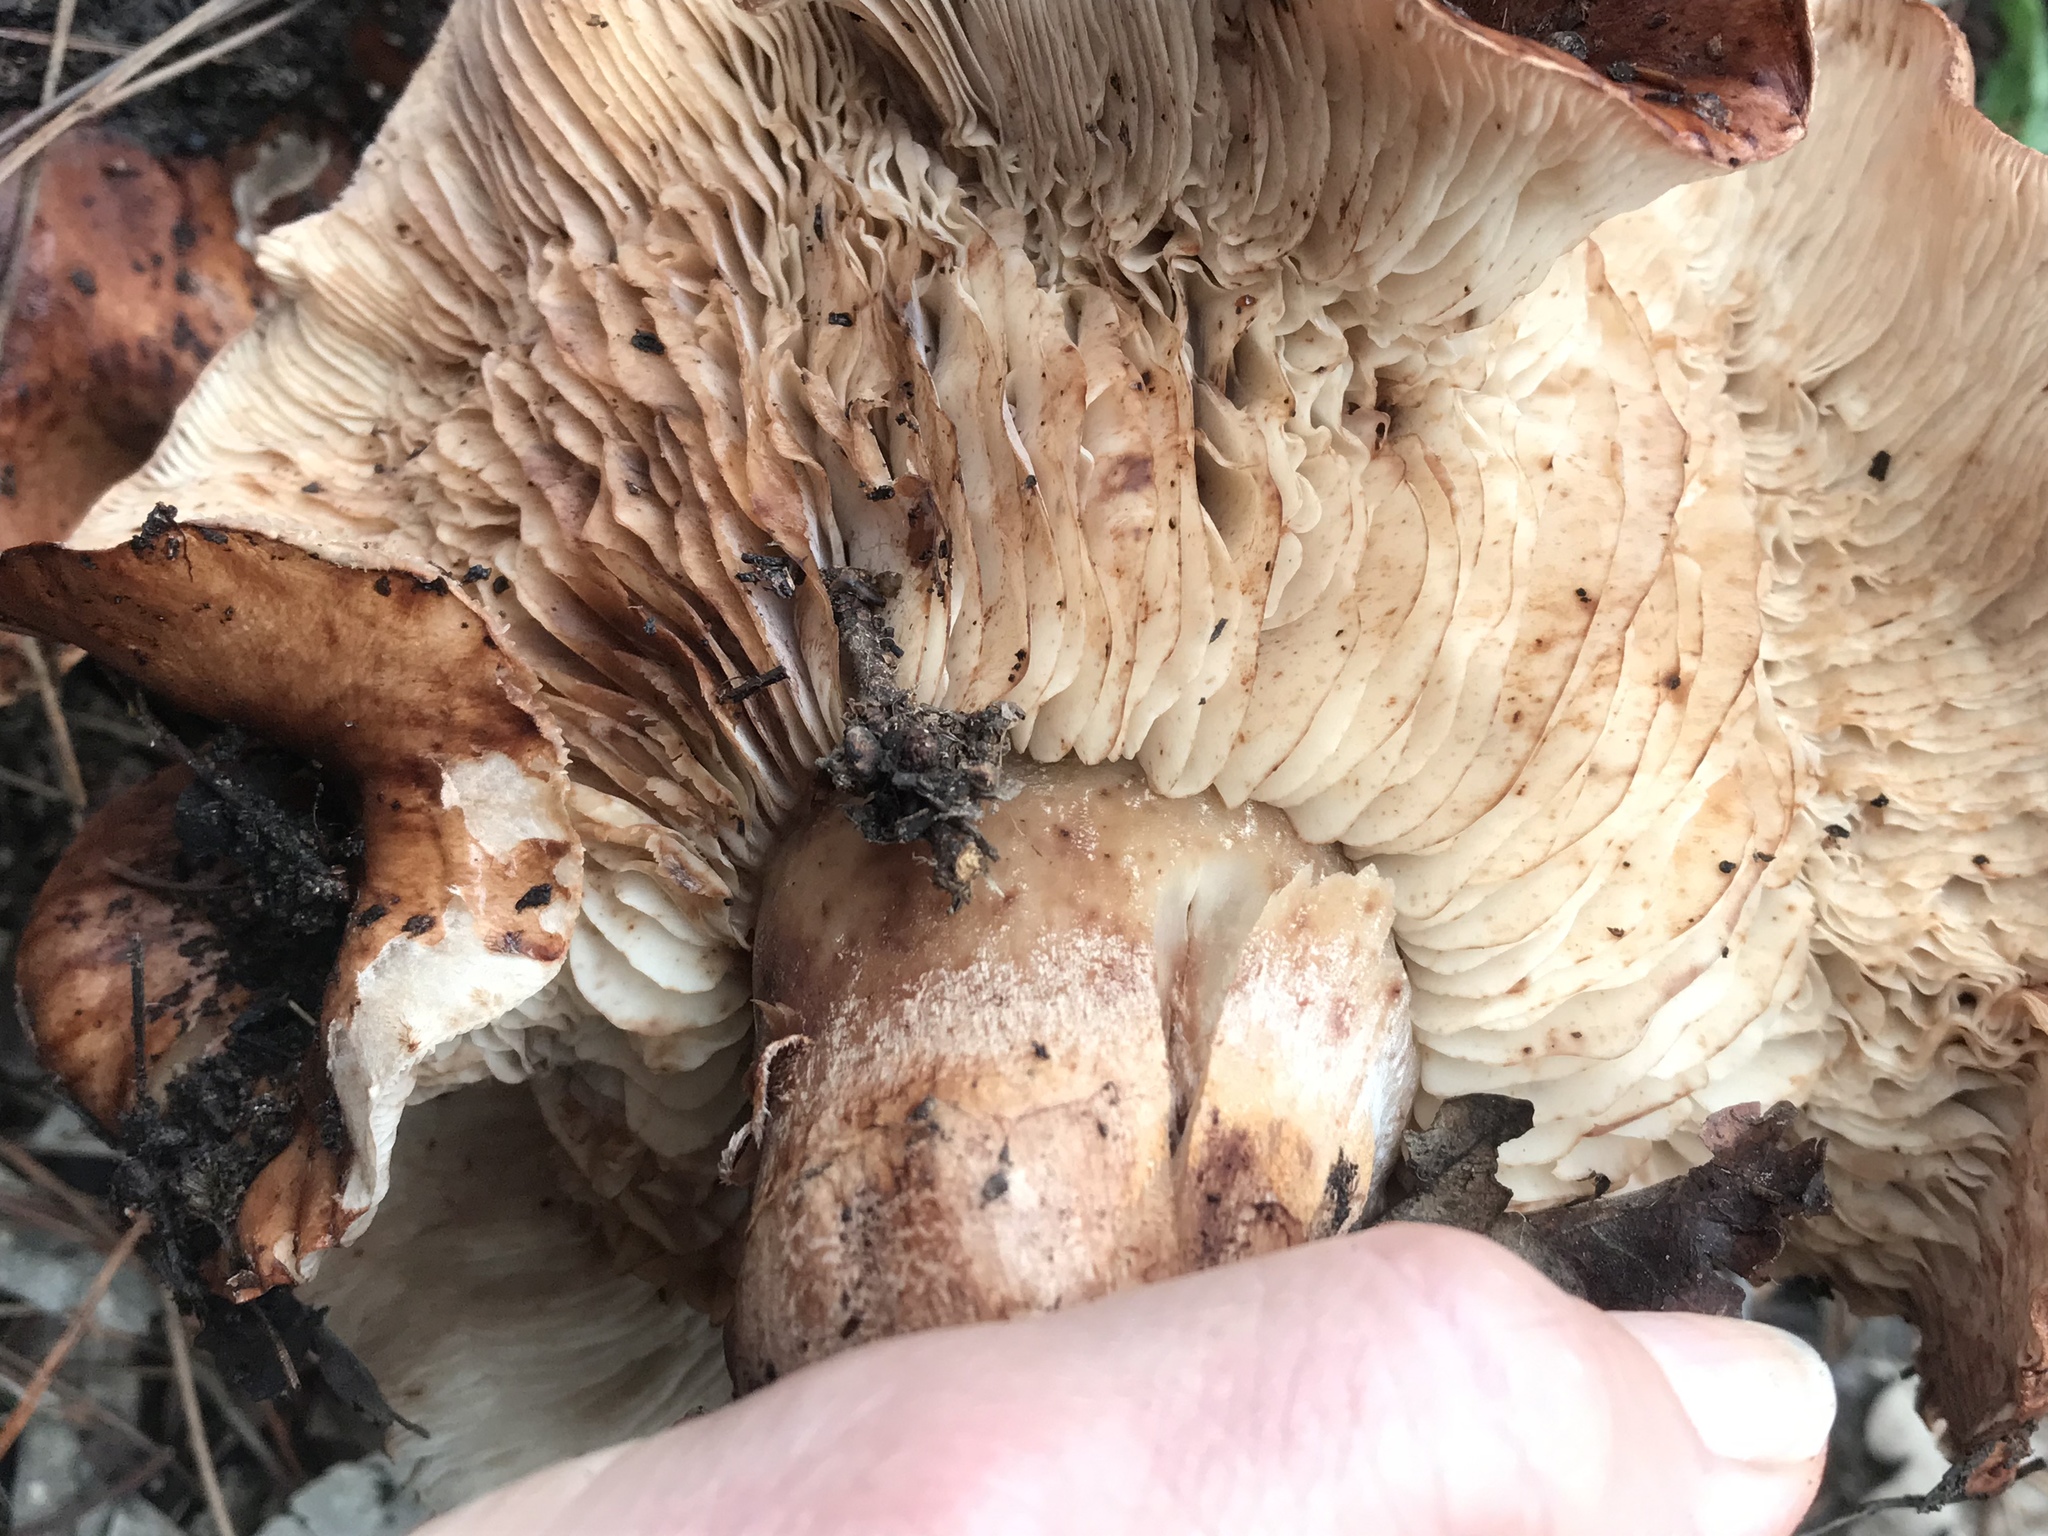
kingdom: Fungi
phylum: Basidiomycota
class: Agaricomycetes
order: Agaricales
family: Tricholomataceae
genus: Tricholoma
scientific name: Tricholoma fracticum
